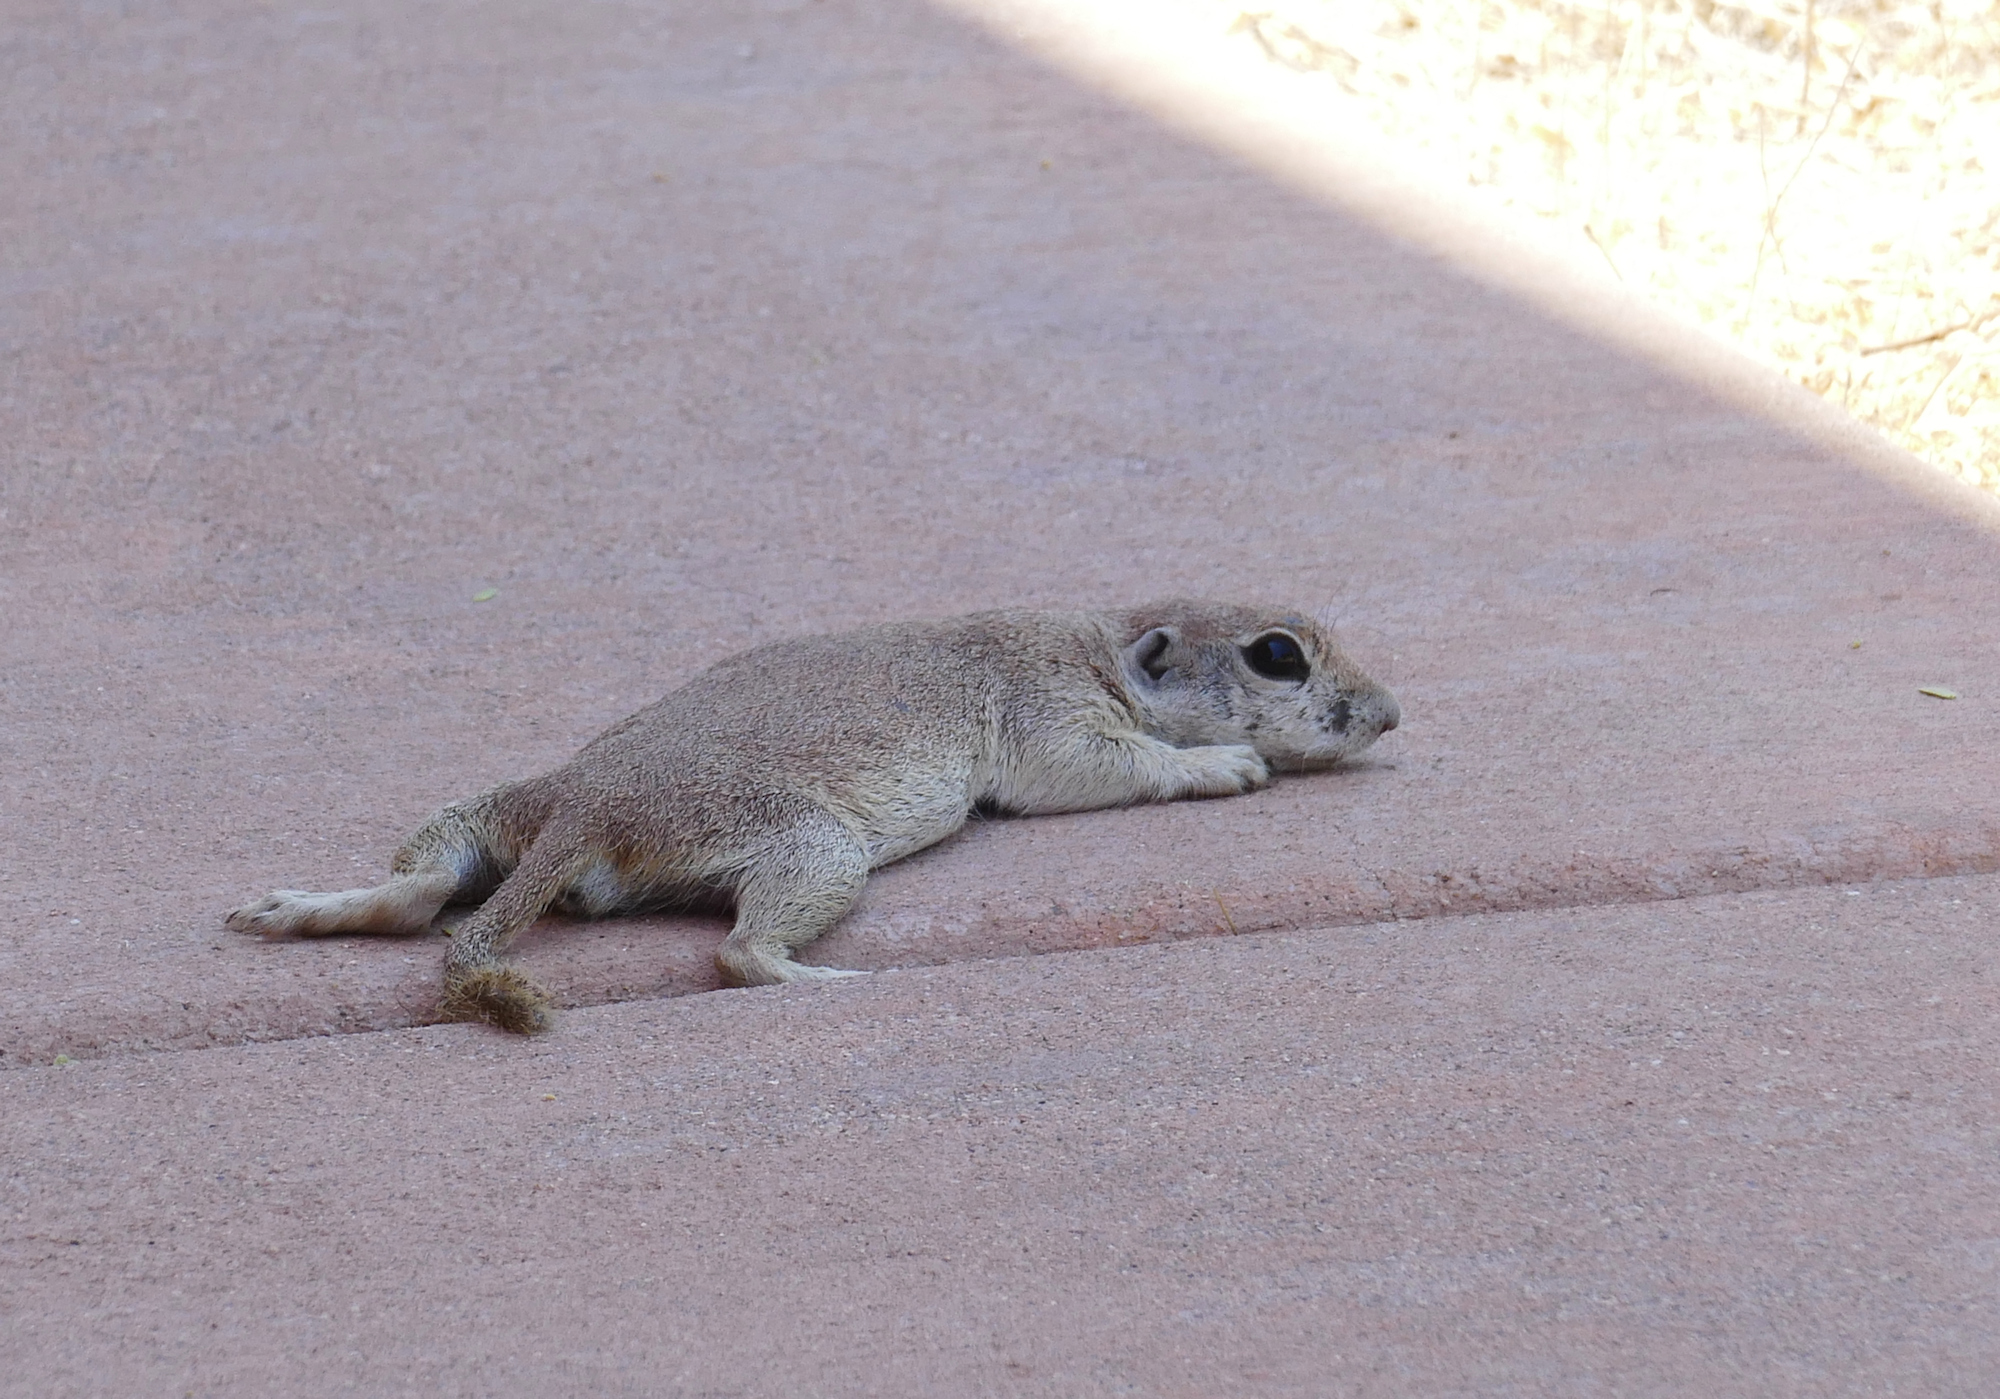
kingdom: Animalia
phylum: Chordata
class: Mammalia
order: Rodentia
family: Sciuridae
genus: Xerospermophilus
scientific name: Xerospermophilus tereticaudus
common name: Round-tailed ground squirrel
